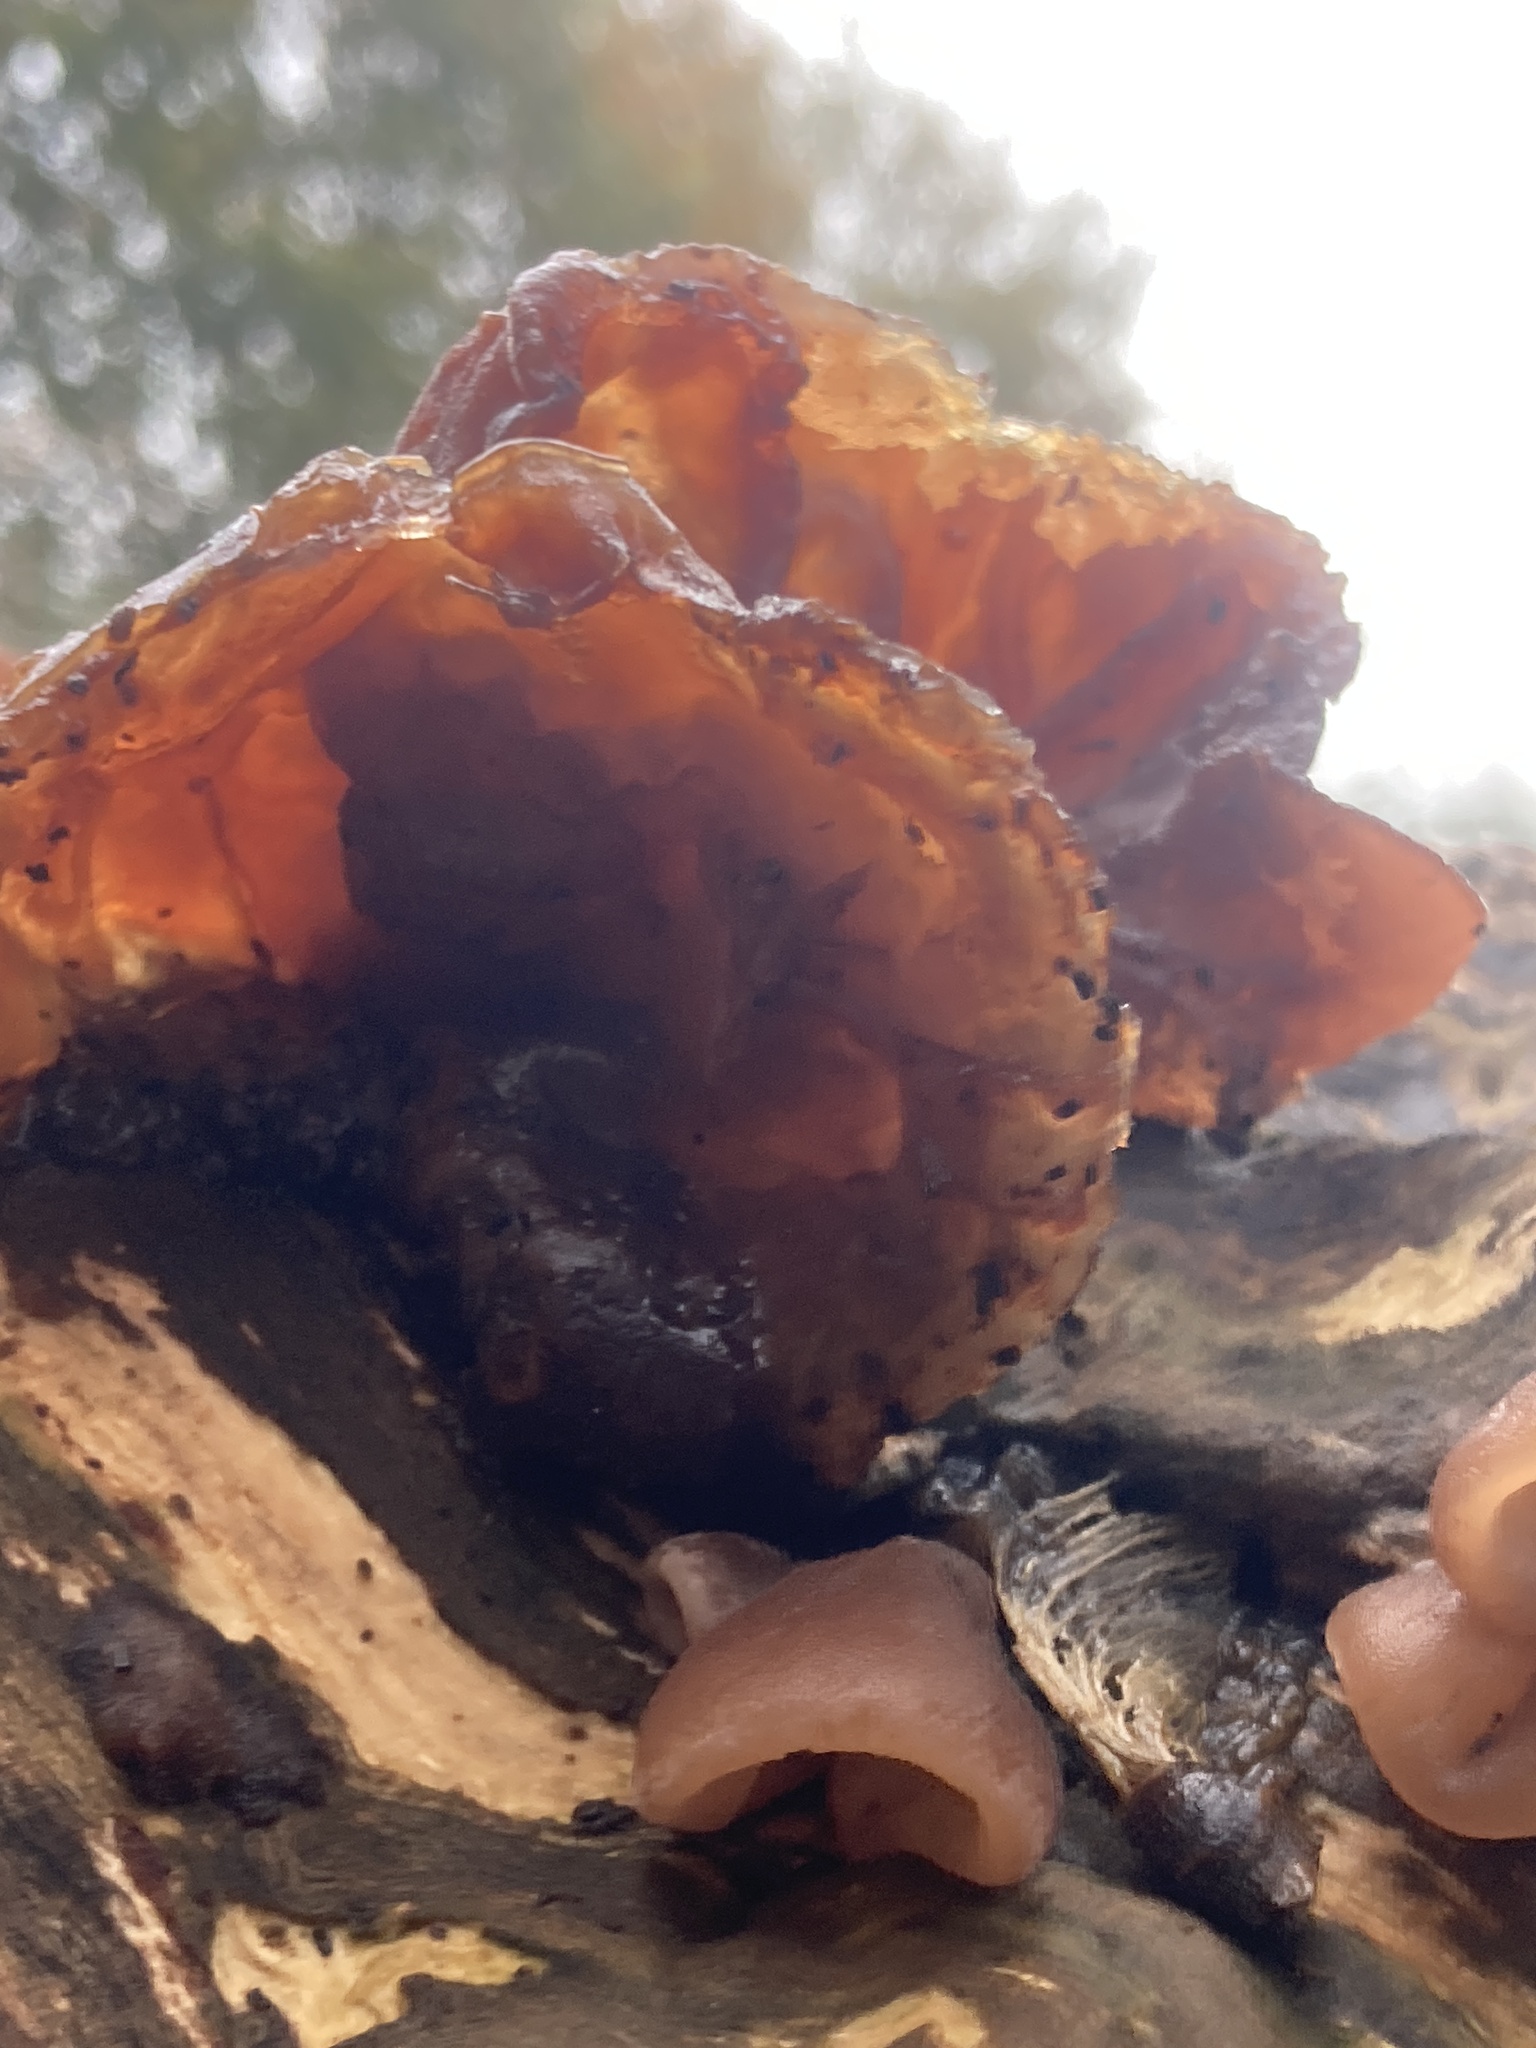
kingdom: Fungi
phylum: Basidiomycota
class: Agaricomycetes
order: Auriculariales
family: Auriculariaceae
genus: Auricularia
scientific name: Auricularia auricula-judae
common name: Jelly ear
